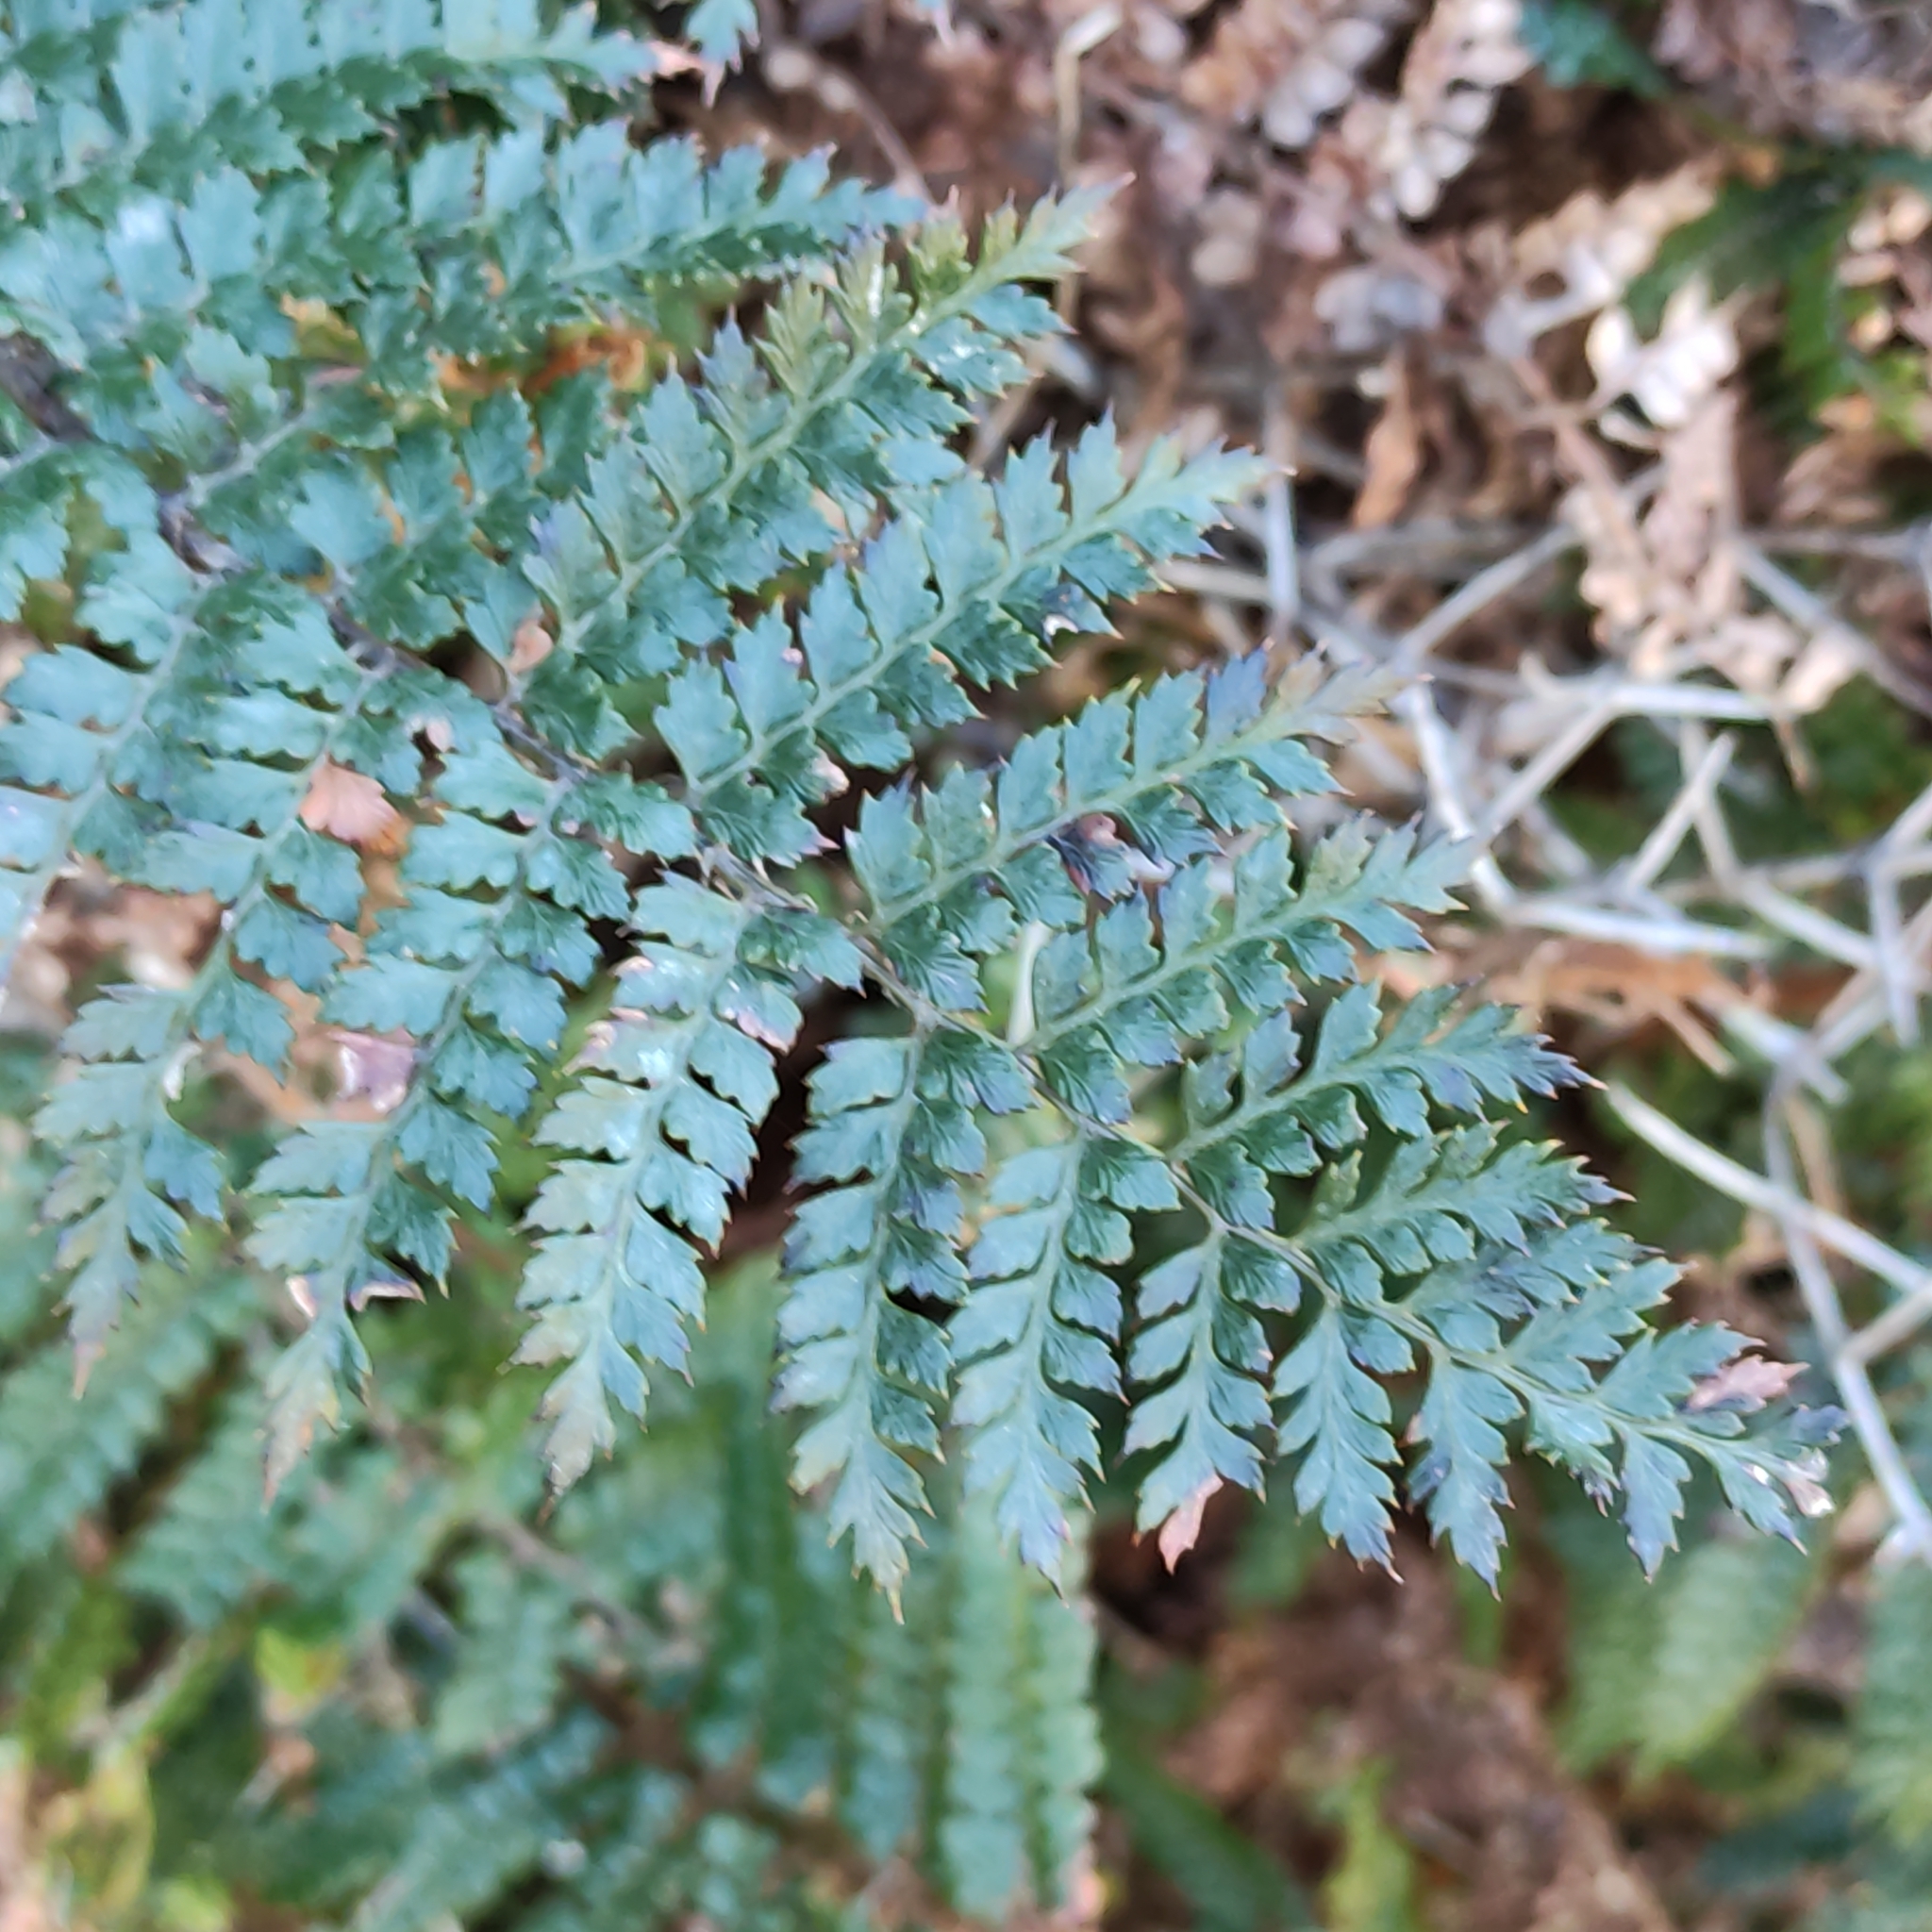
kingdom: Plantae
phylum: Tracheophyta
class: Polypodiopsida
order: Polypodiales
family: Dryopteridaceae
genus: Polystichum
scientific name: Polystichum vestitum
